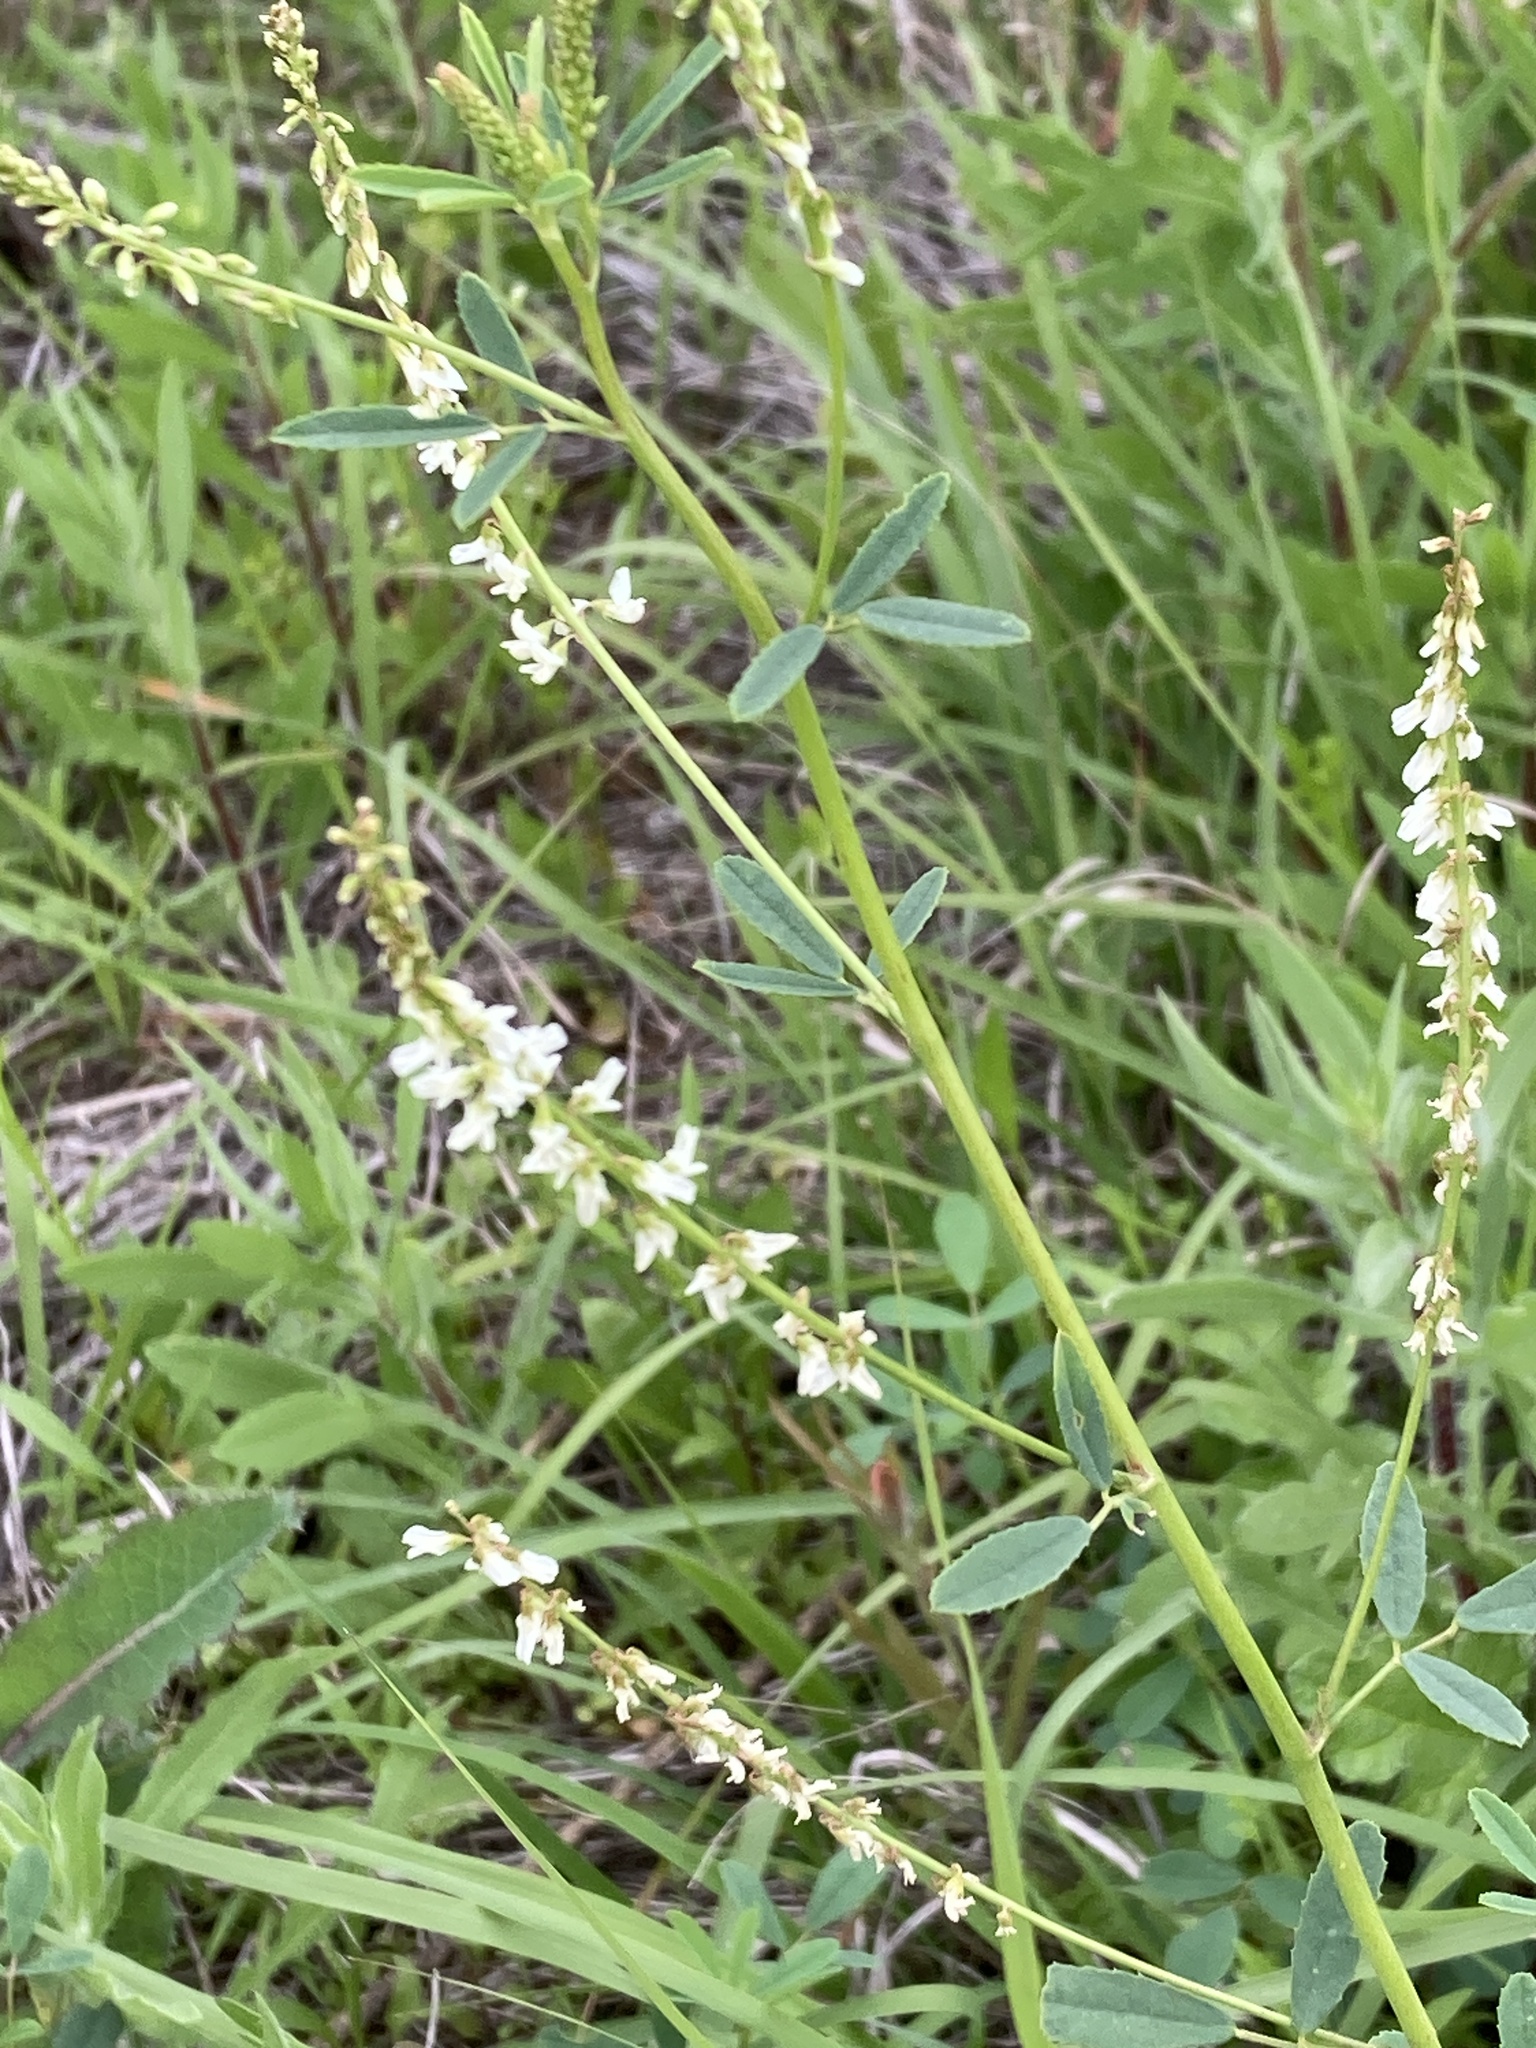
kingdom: Plantae
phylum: Tracheophyta
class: Magnoliopsida
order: Fabales
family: Fabaceae
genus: Melilotus
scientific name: Melilotus albus
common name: White melilot
